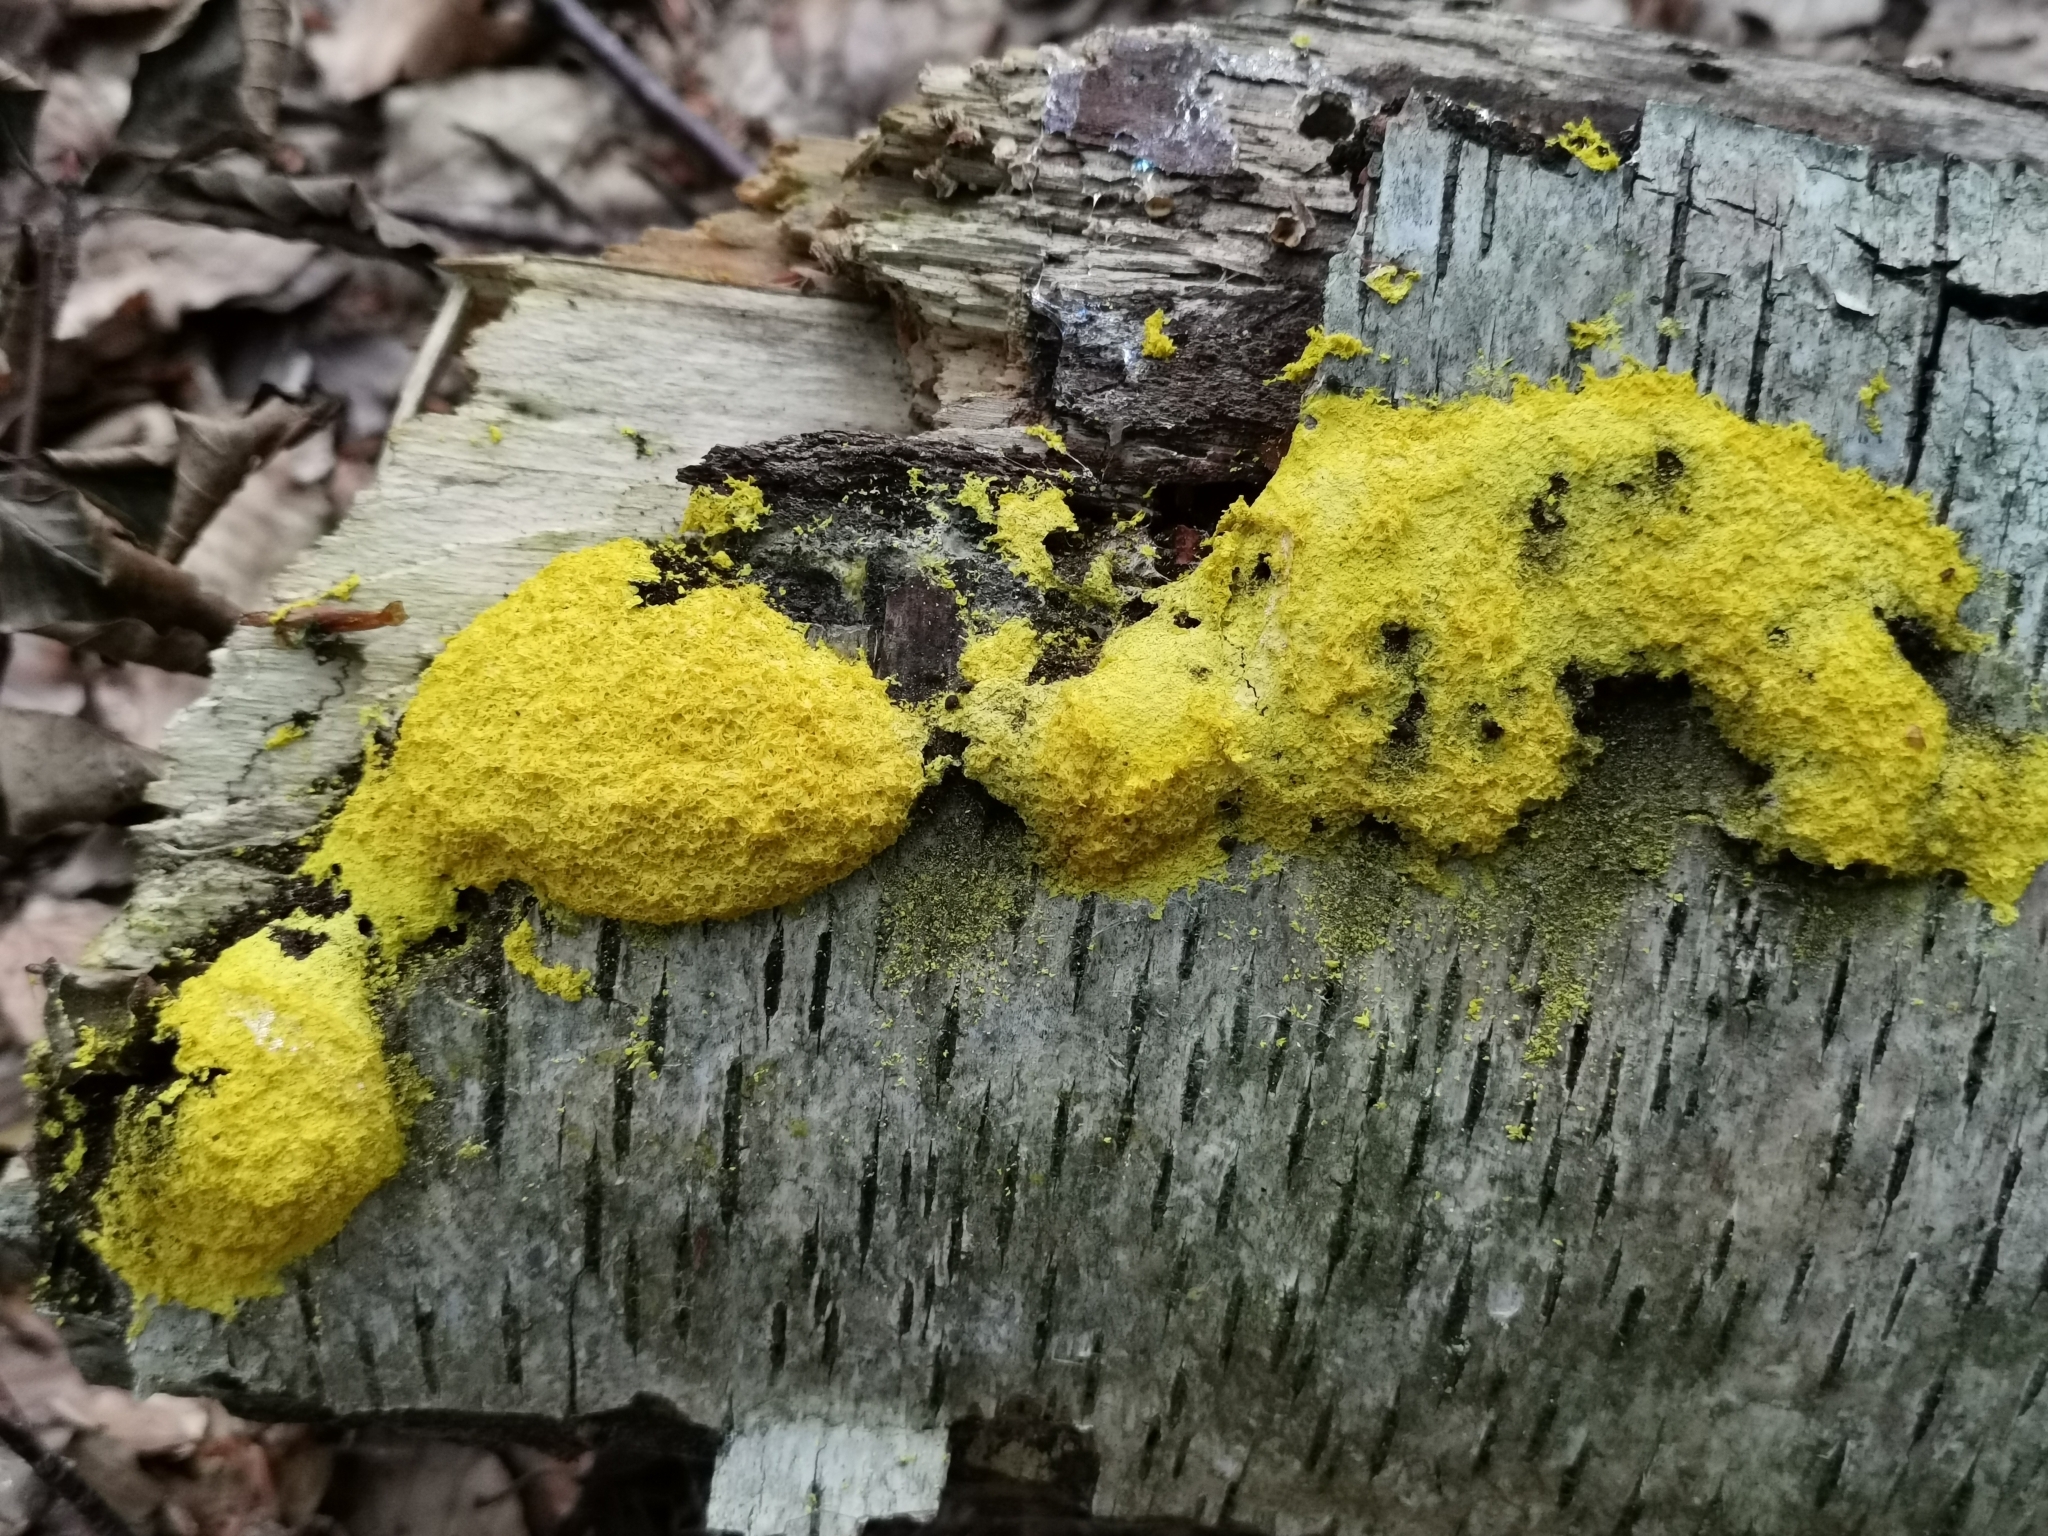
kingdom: Protozoa
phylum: Mycetozoa
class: Myxomycetes
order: Physarales
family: Physaraceae
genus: Fuligo
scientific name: Fuligo septica
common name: Dog vomit slime mold
